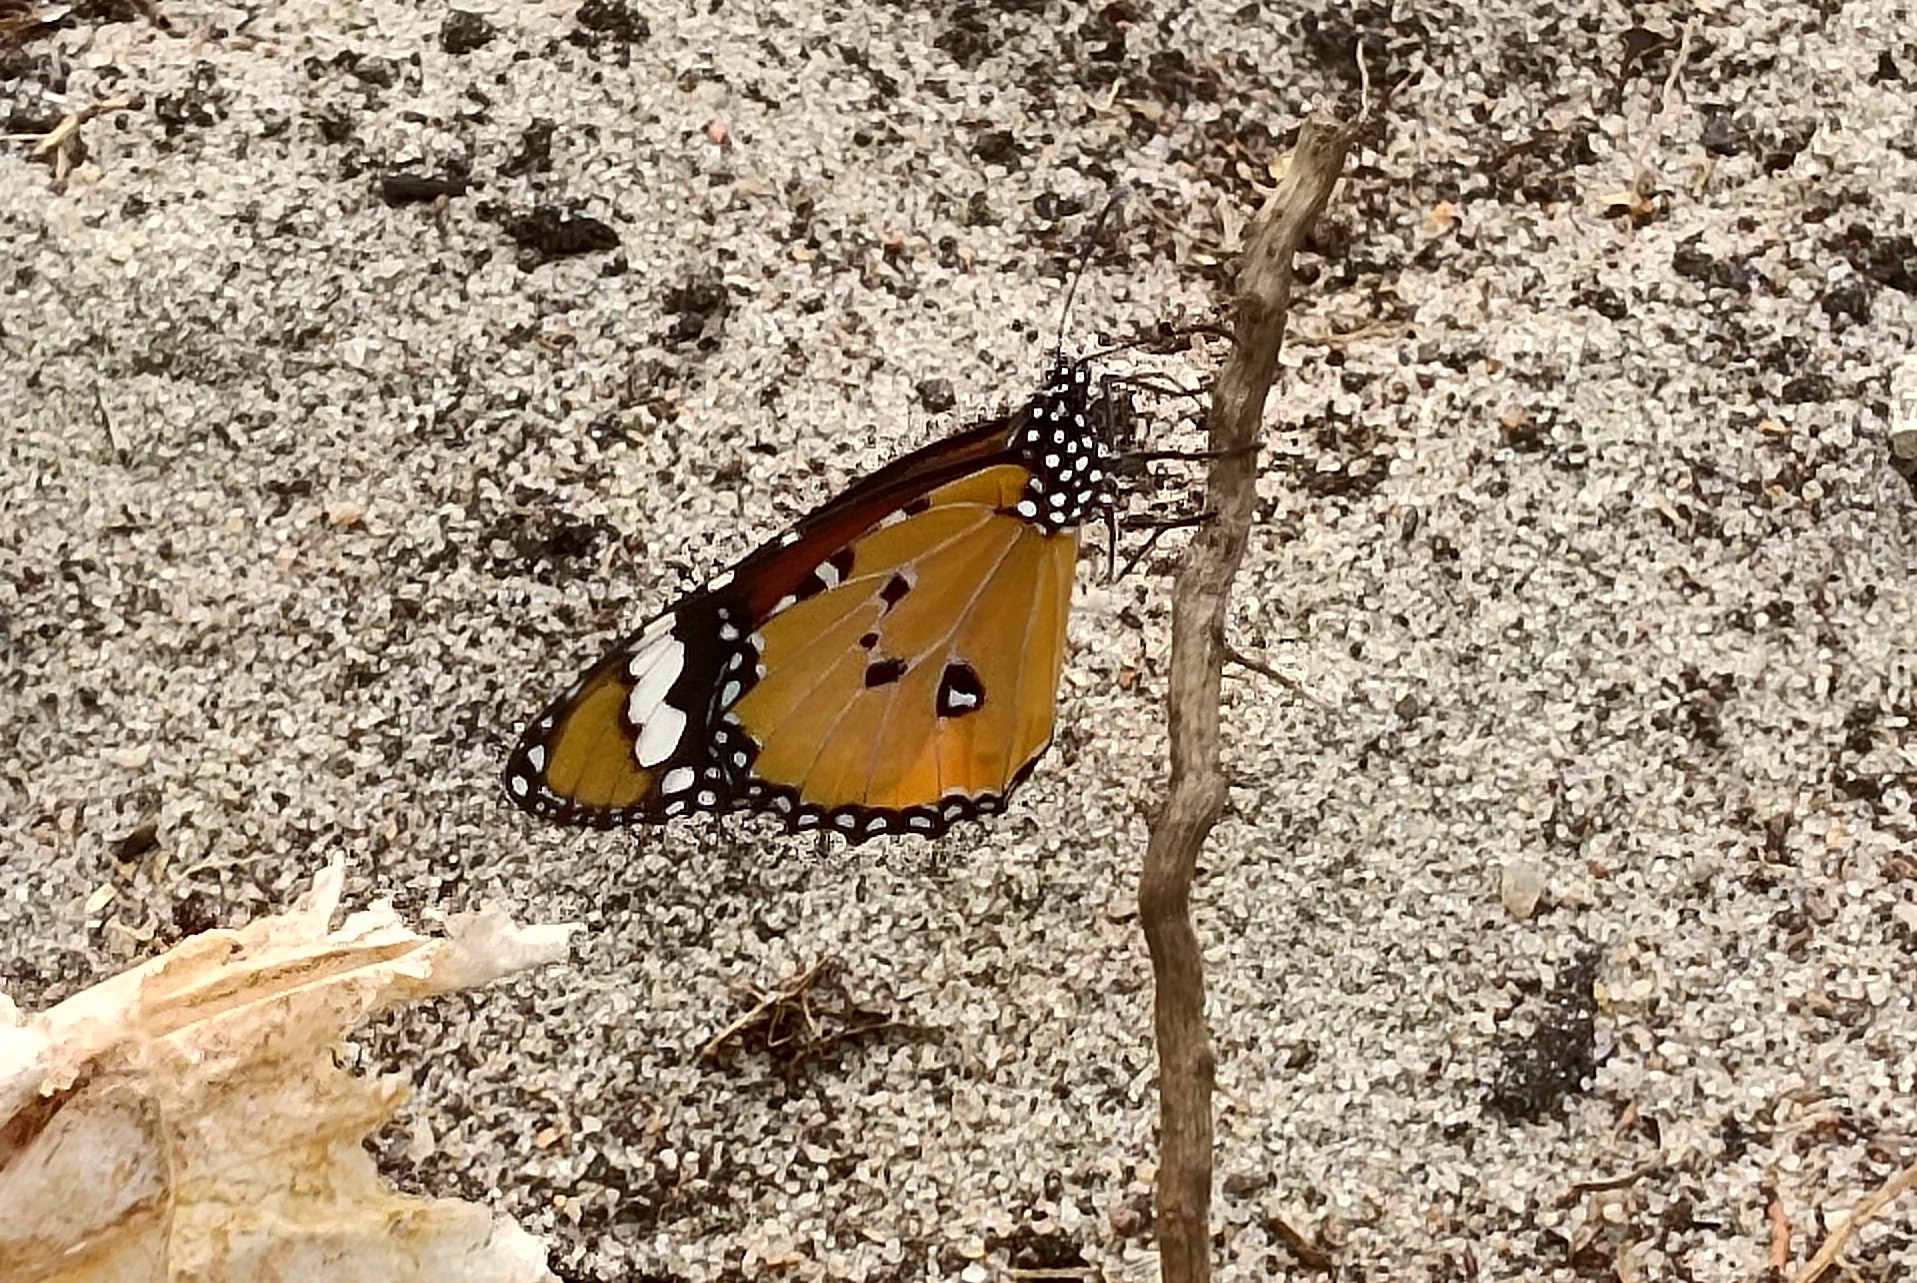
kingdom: Animalia
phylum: Arthropoda
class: Insecta
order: Lepidoptera
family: Nymphalidae
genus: Danaus
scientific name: Danaus chrysippus
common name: Plain tiger
